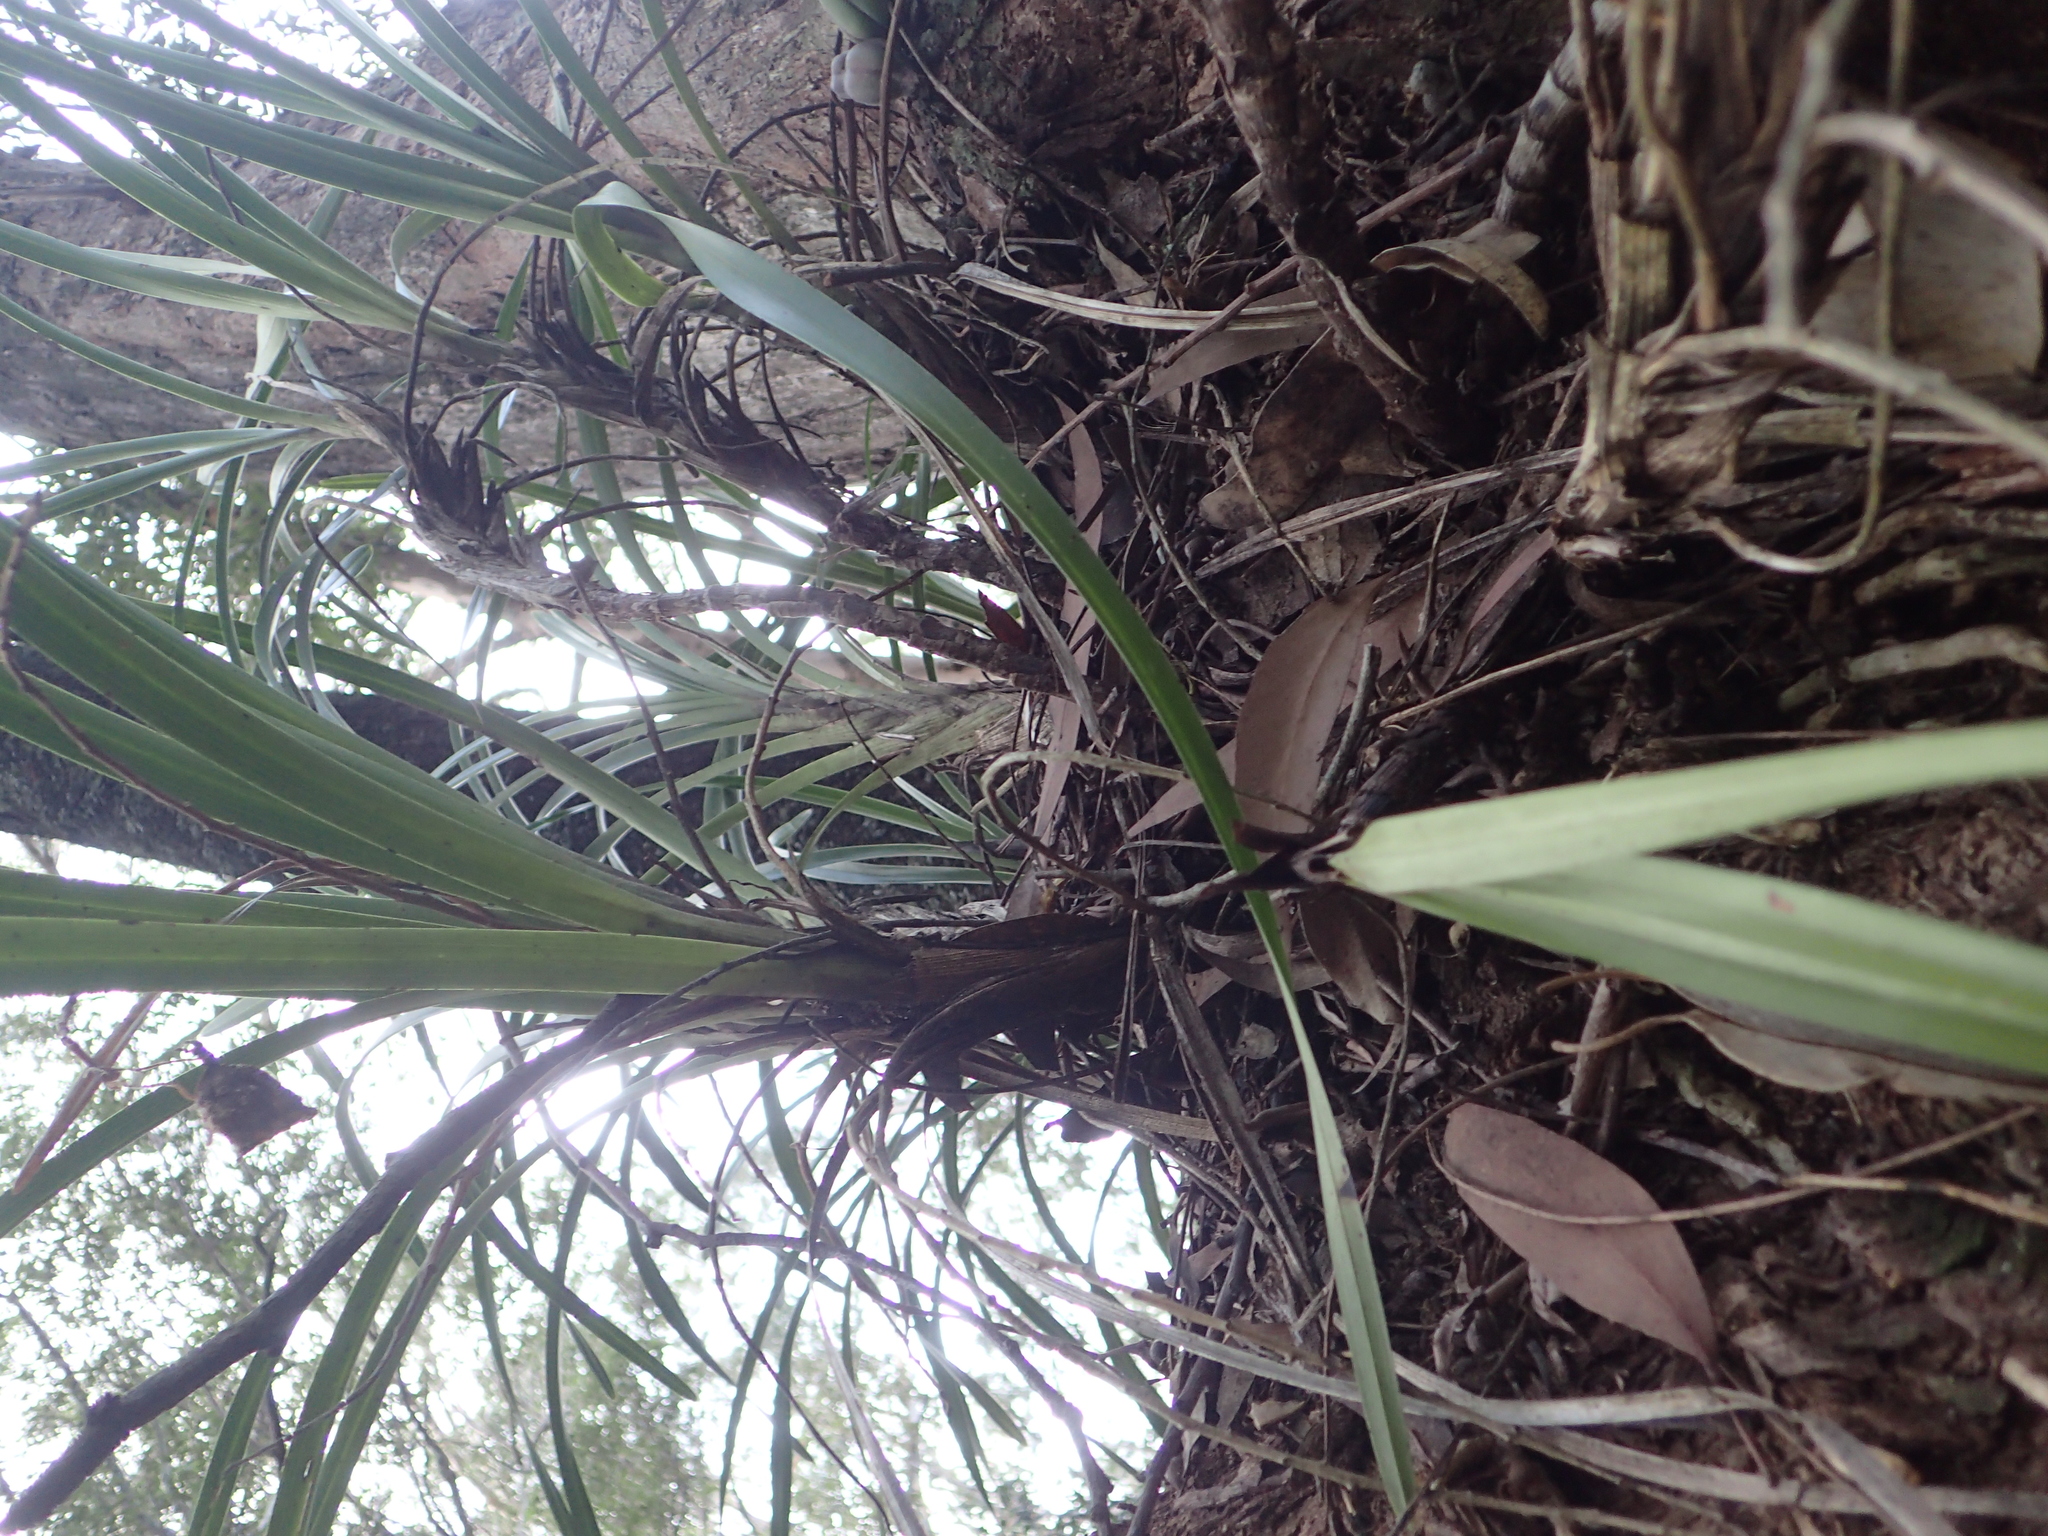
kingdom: Plantae
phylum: Tracheophyta
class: Liliopsida
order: Asparagales
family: Orchidaceae
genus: Cymbidium
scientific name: Cymbidium suave
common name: Snake orchid
